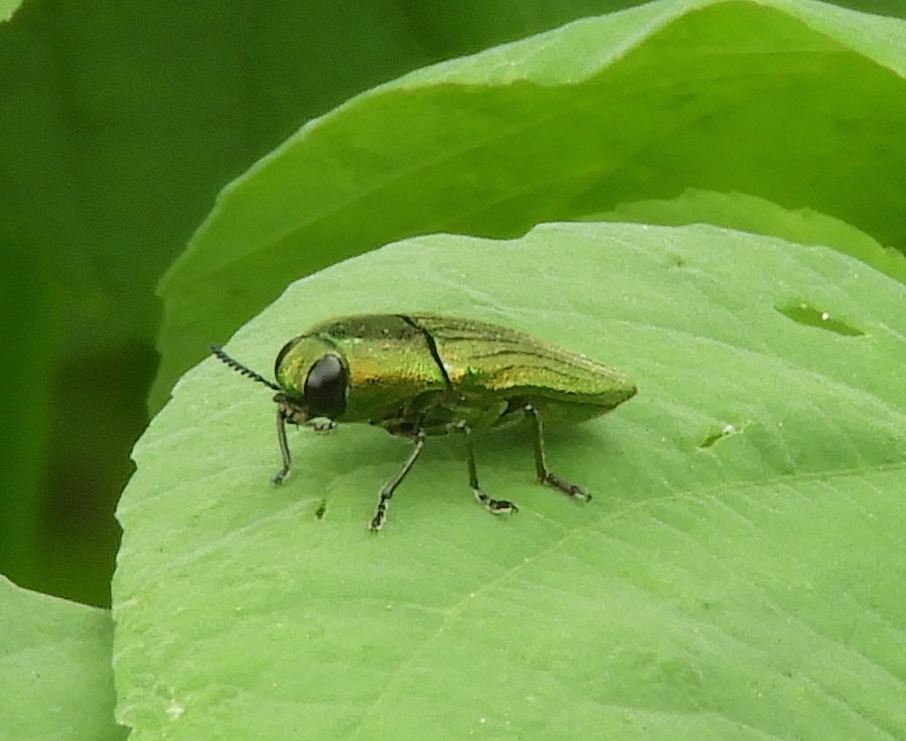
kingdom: Animalia
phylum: Arthropoda
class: Insecta
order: Coleoptera
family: Buprestidae
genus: Agaeocera
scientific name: Agaeocera scintillans
